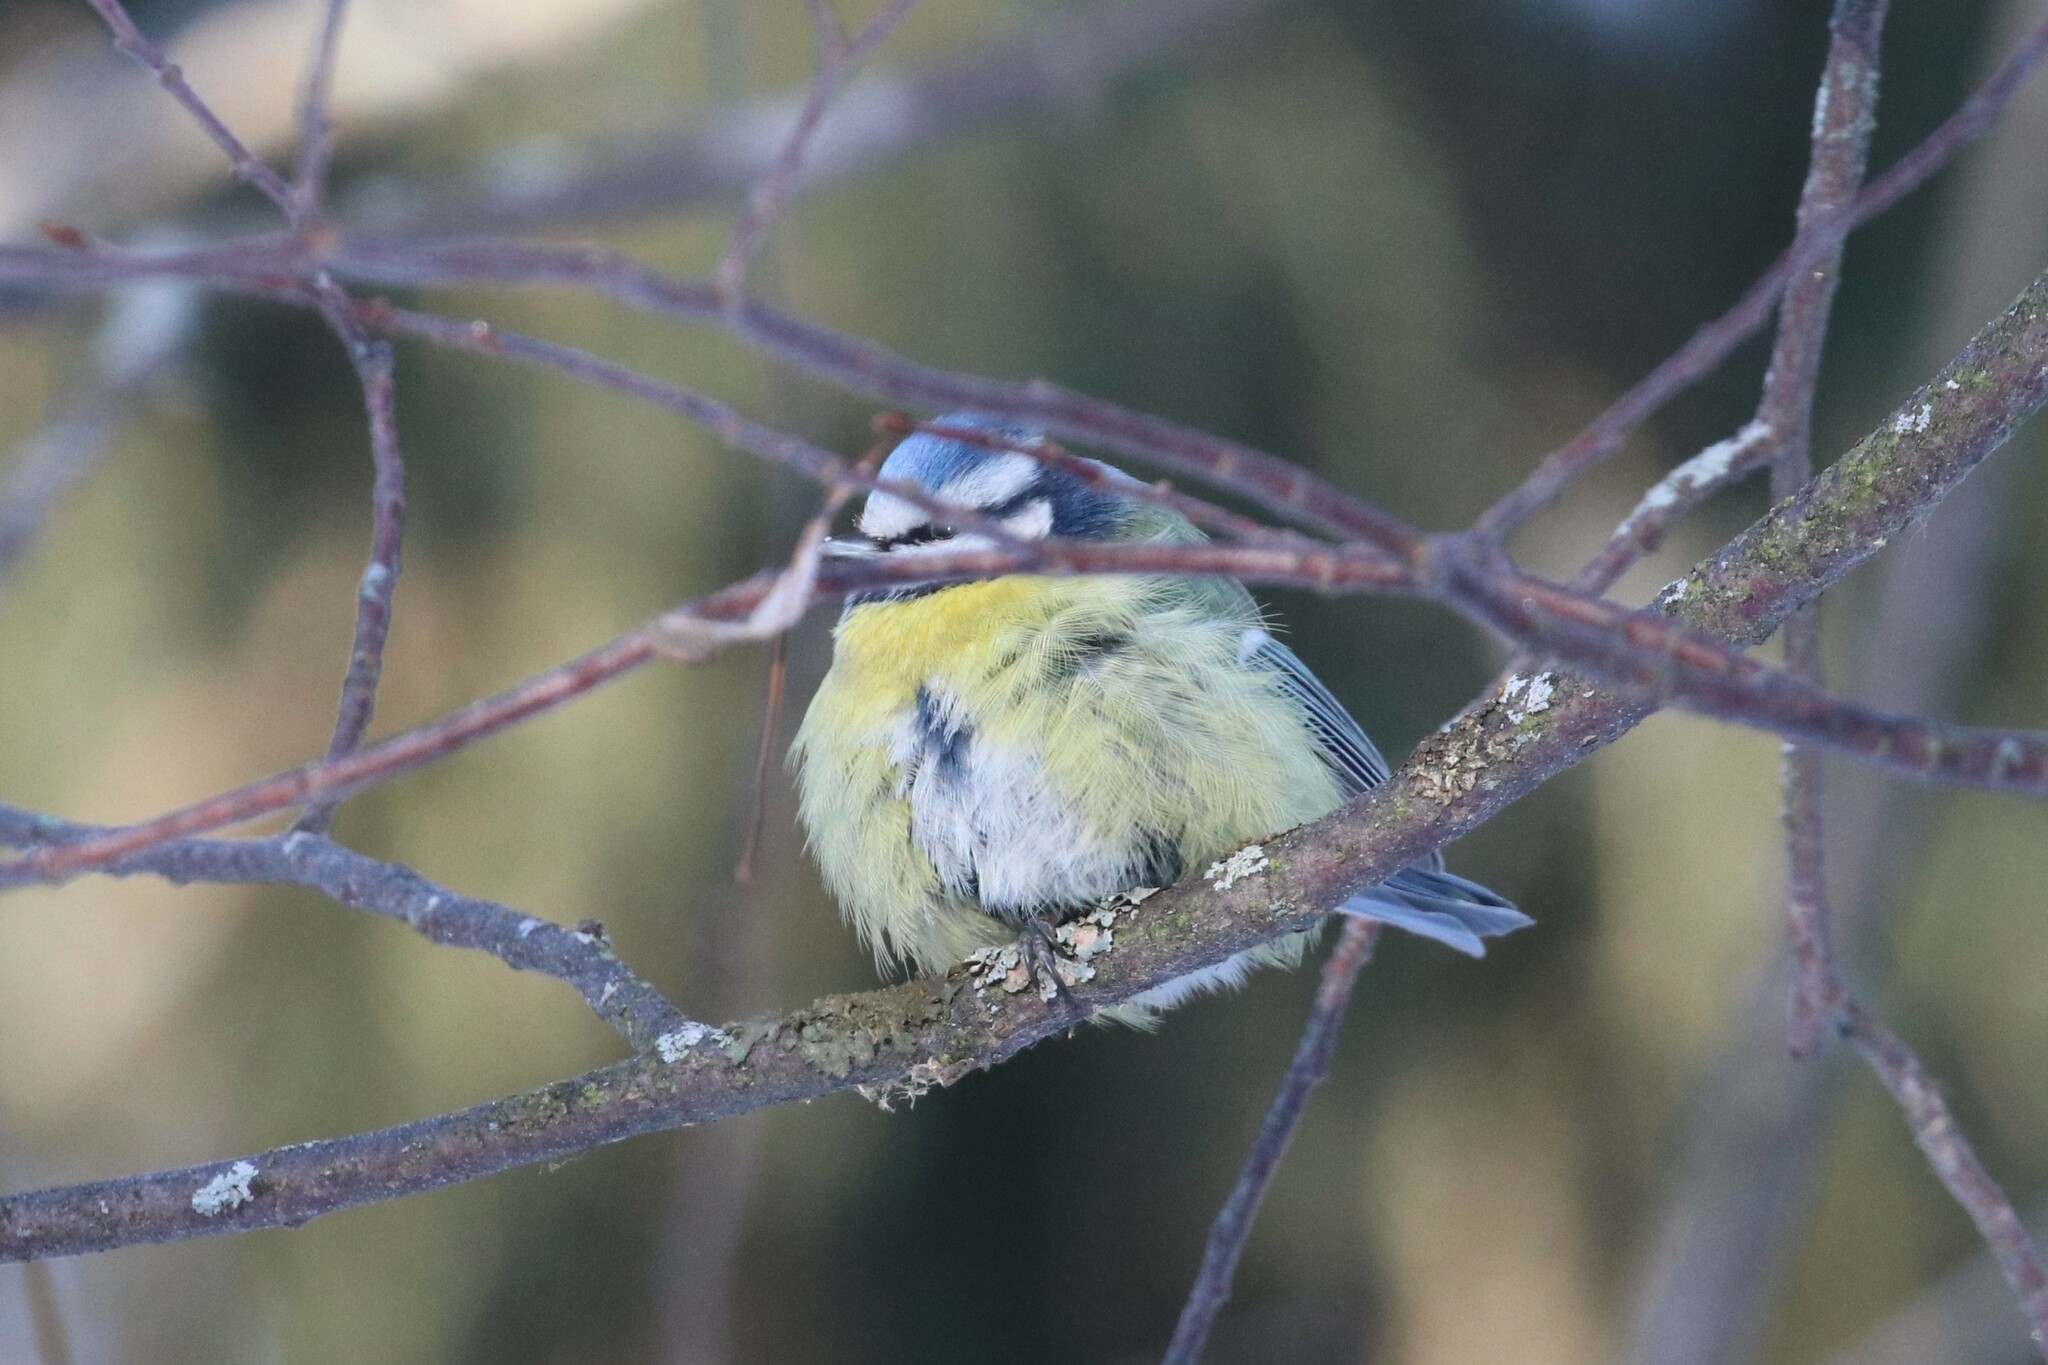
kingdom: Animalia
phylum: Chordata
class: Aves
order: Passeriformes
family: Paridae
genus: Cyanistes
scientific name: Cyanistes caeruleus
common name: Eurasian blue tit
